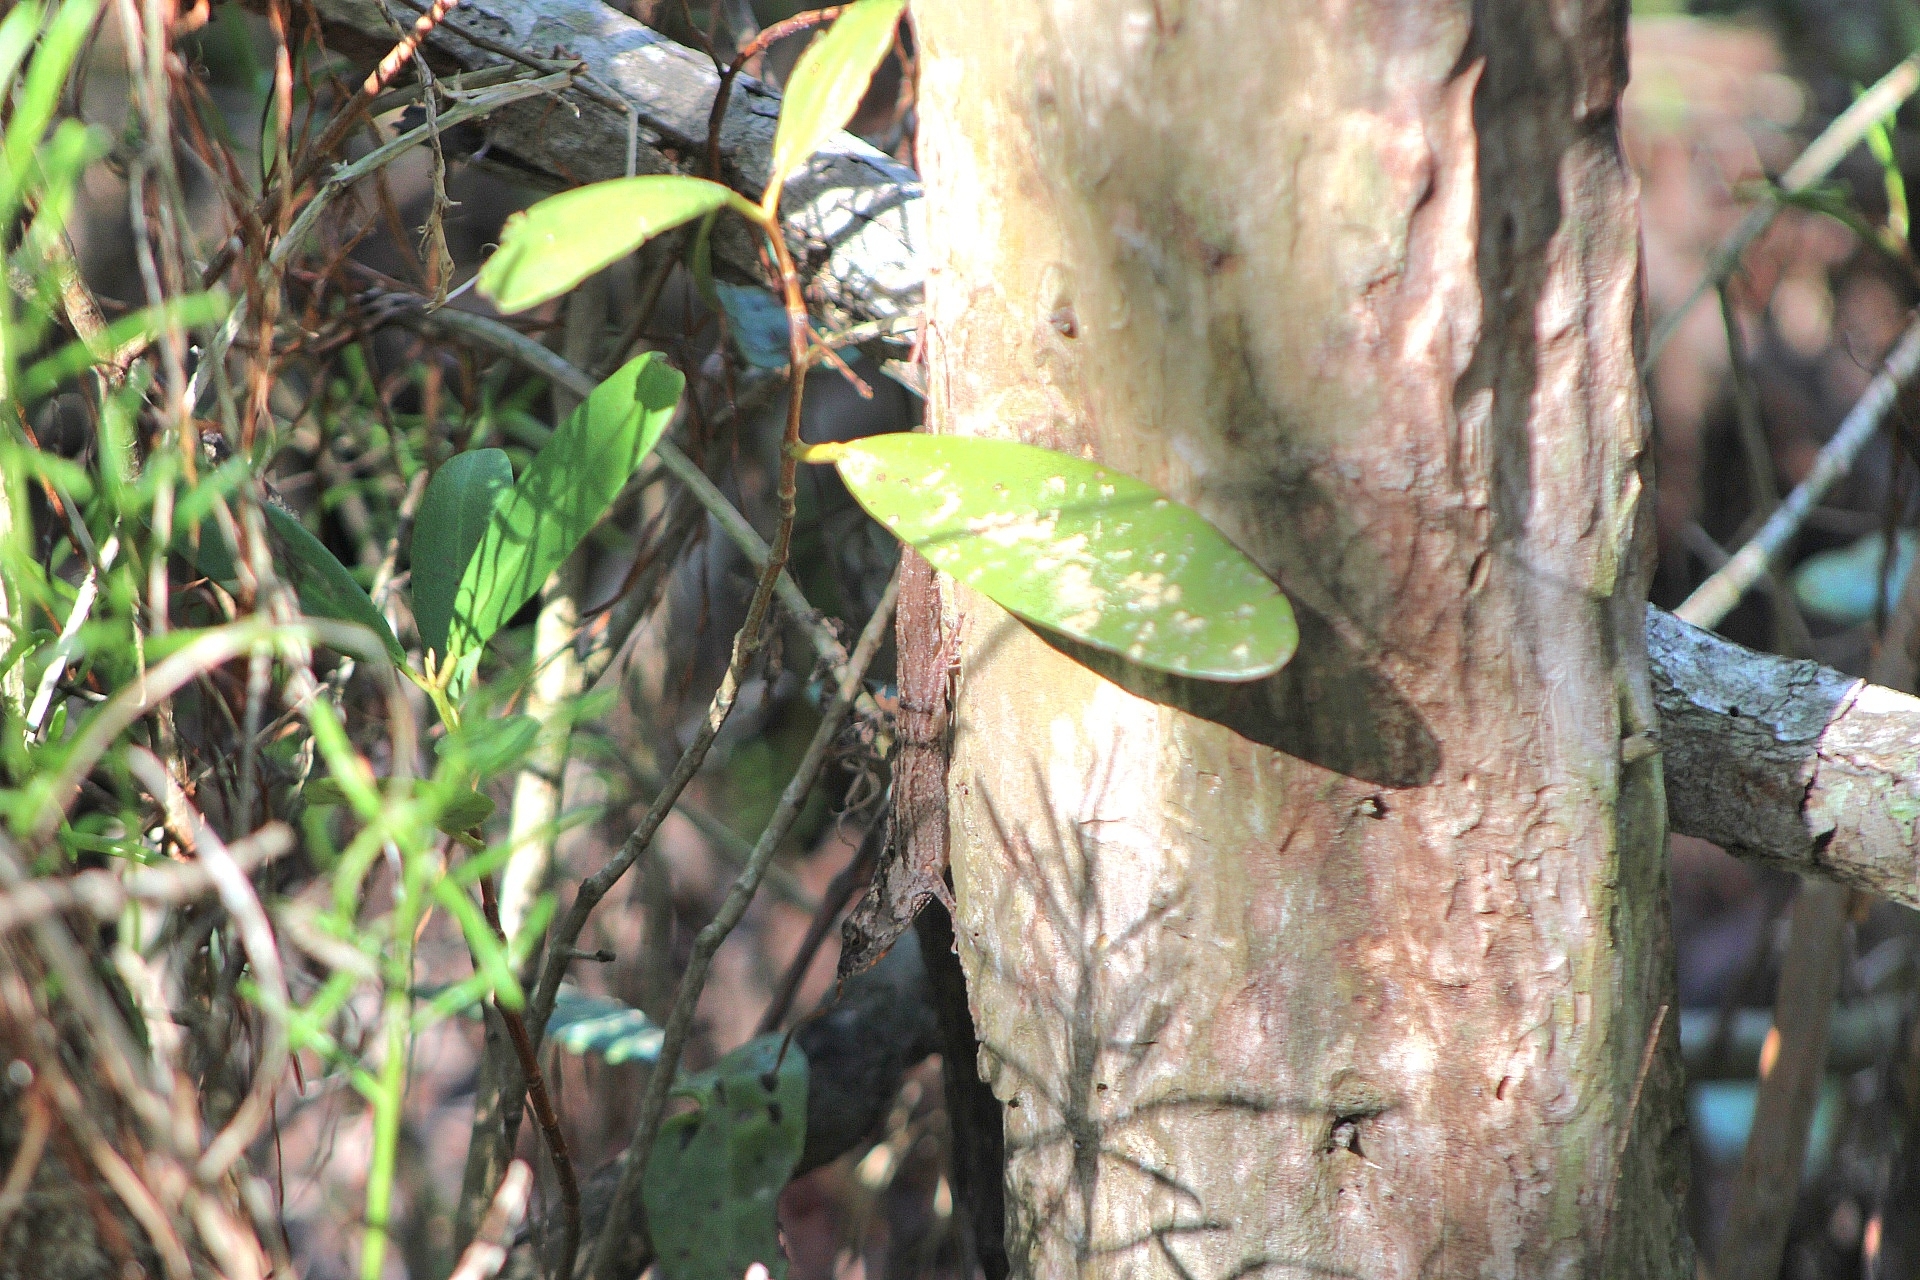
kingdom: Animalia
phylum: Chordata
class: Squamata
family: Dactyloidae
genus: Anolis
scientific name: Anolis sagrei
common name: Brown anole
